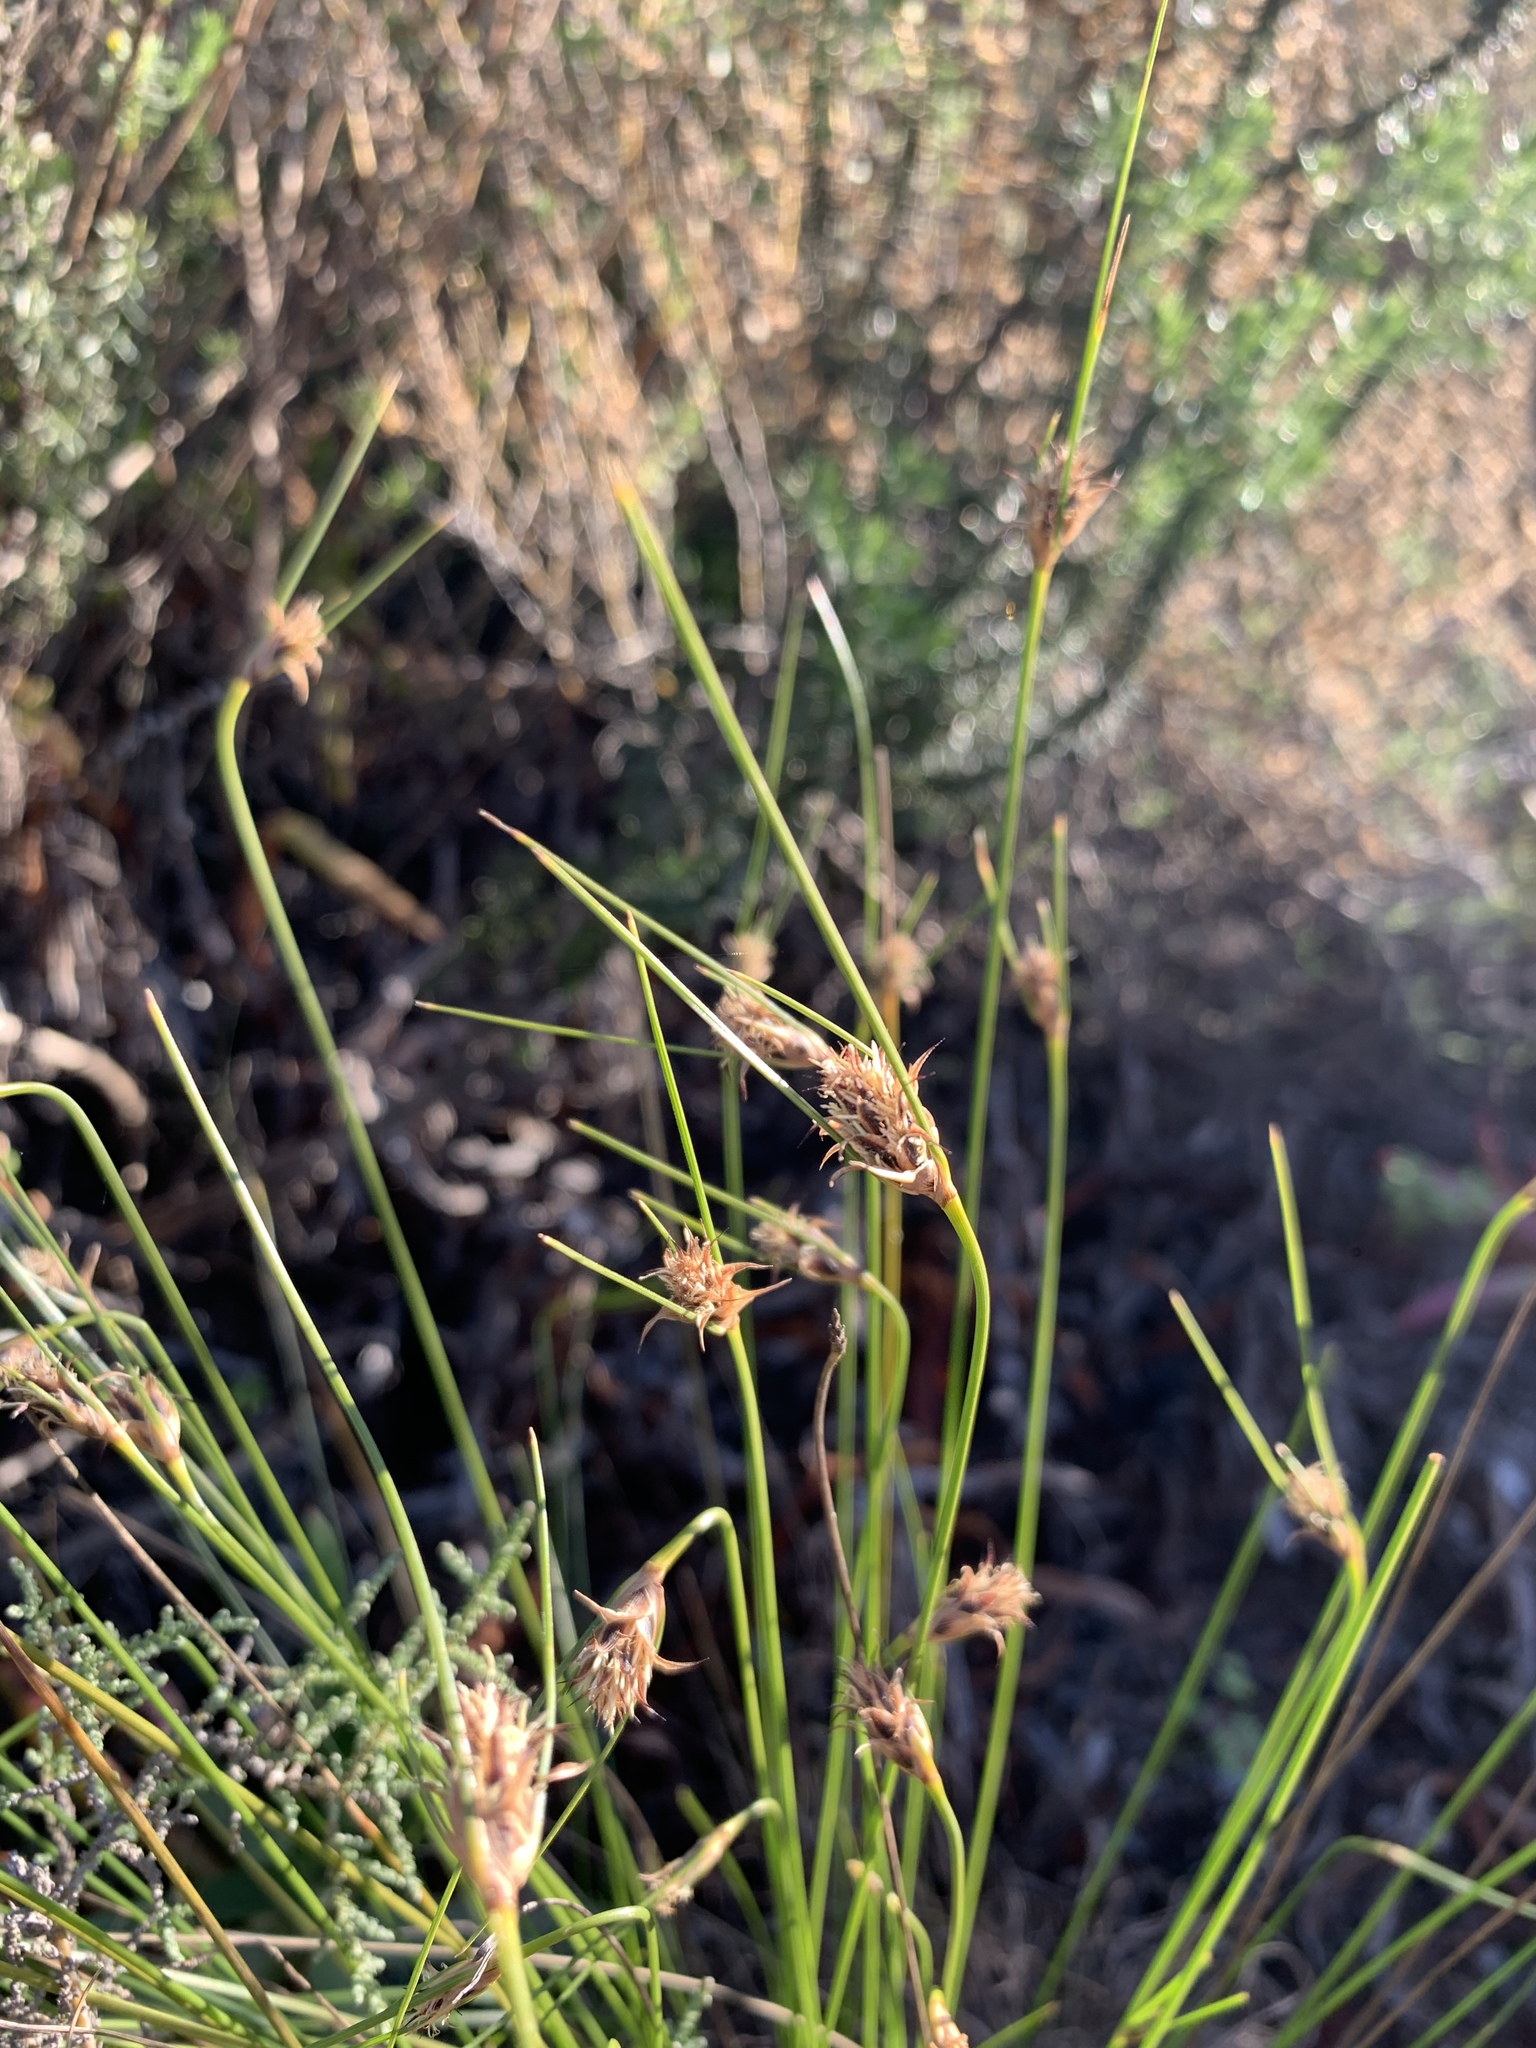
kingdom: Plantae
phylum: Tracheophyta
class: Liliopsida
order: Poales
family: Cyperaceae
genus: Ficinia
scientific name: Ficinia nigrescens
